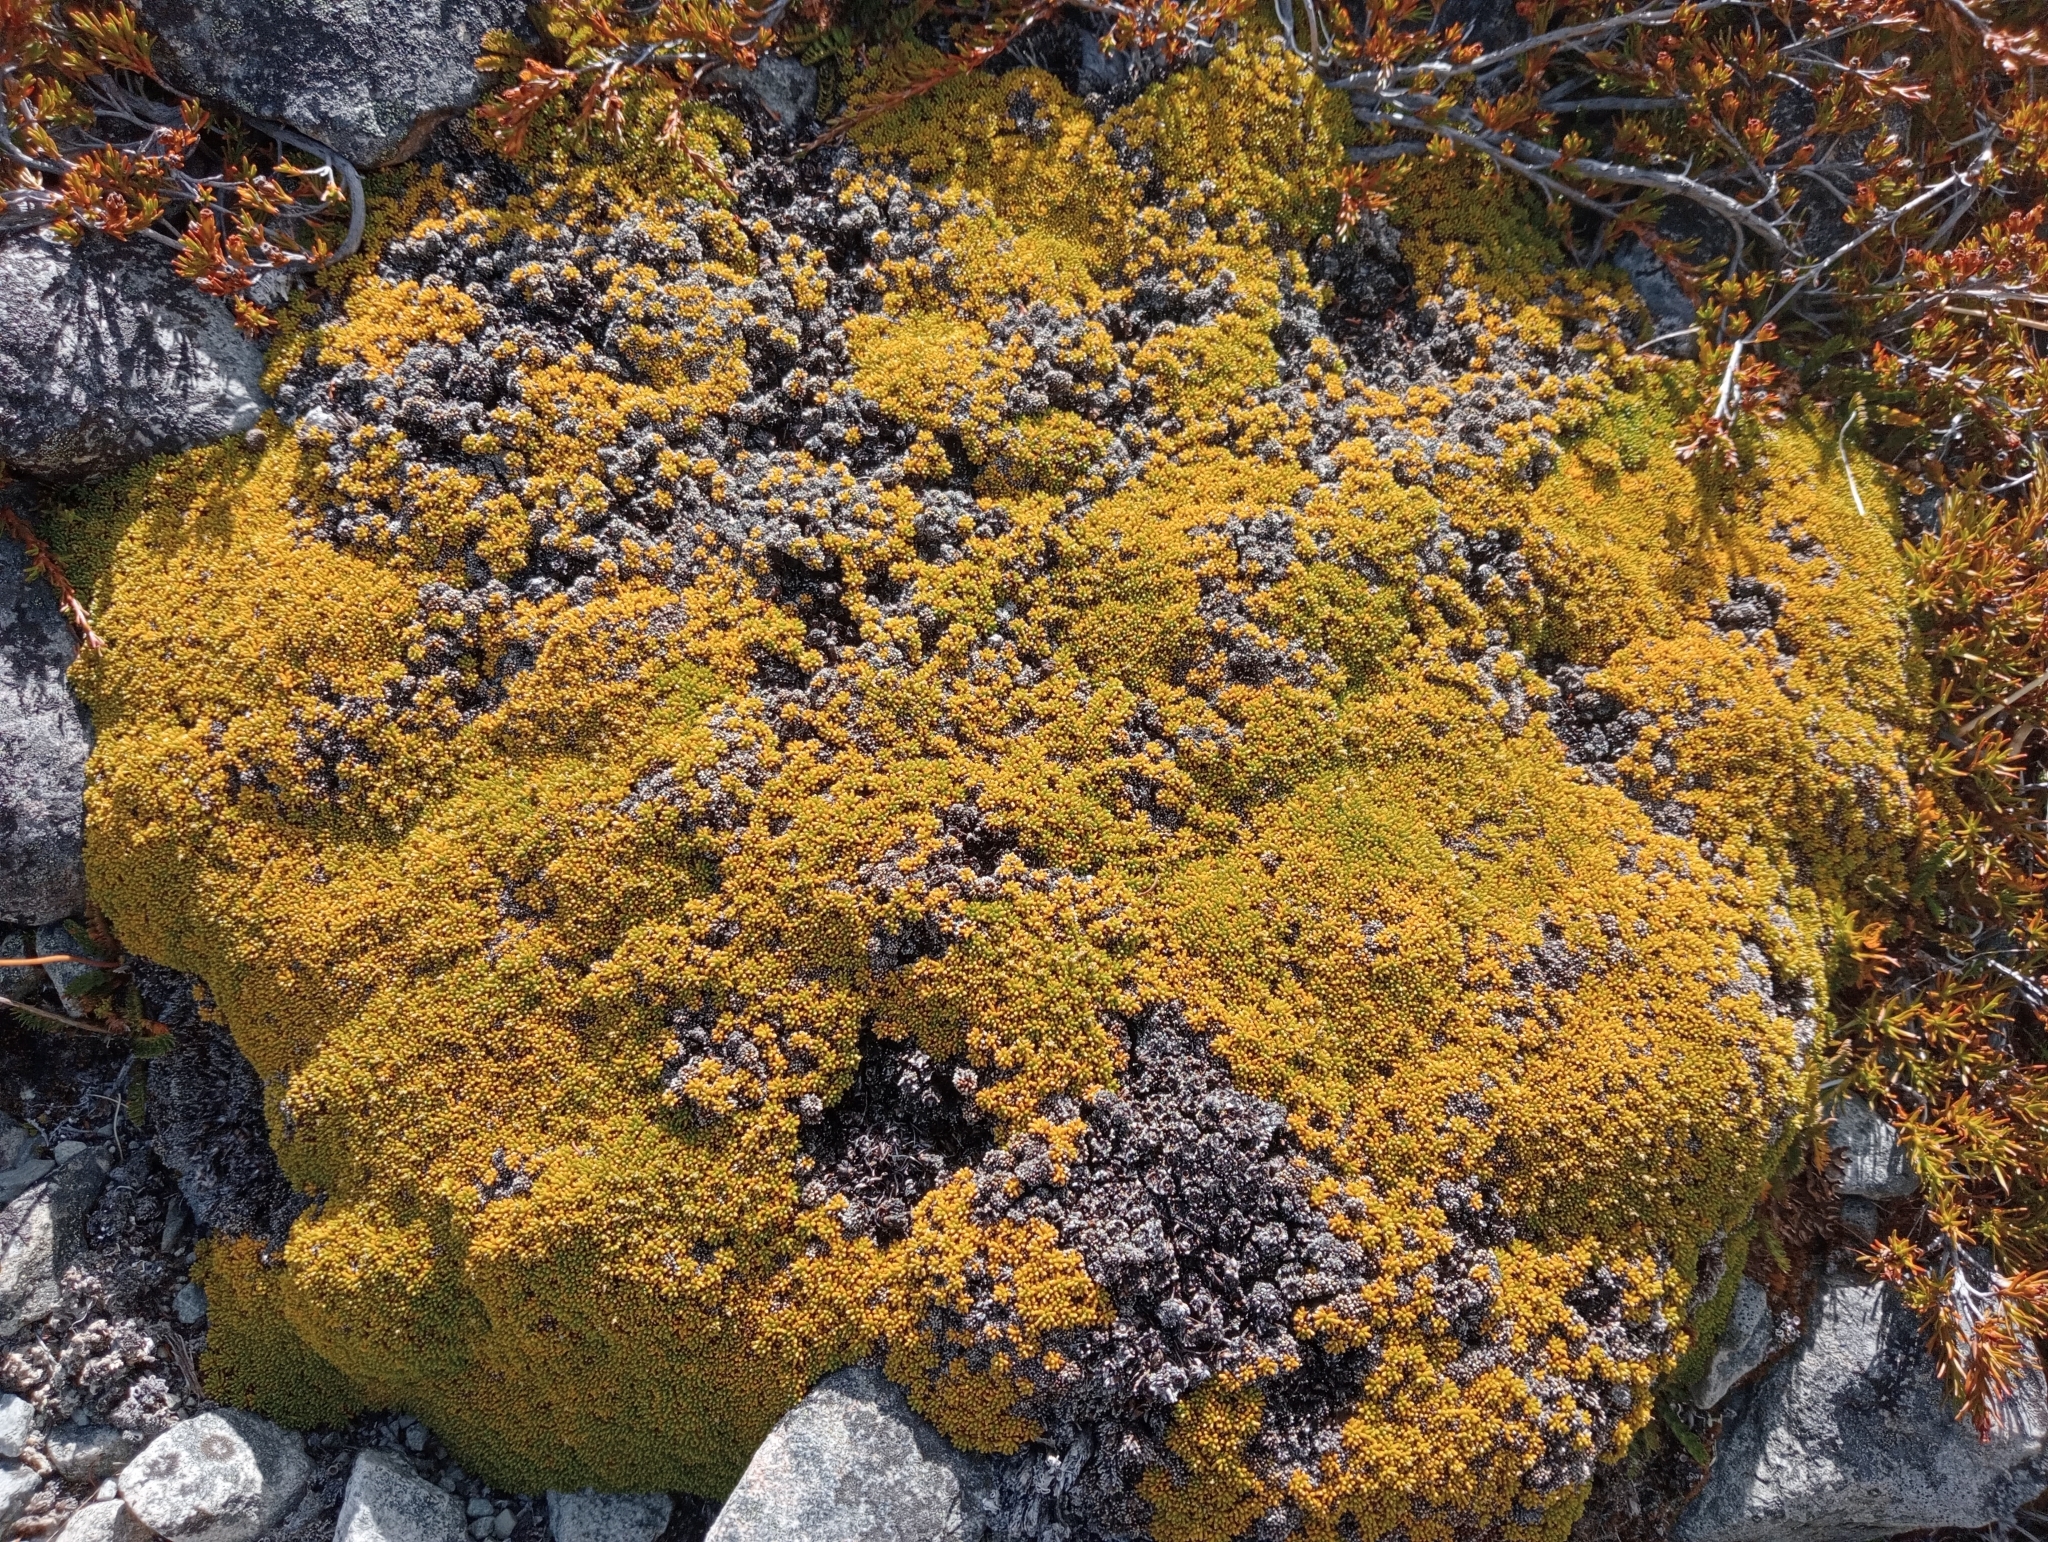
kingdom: Plantae
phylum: Tracheophyta
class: Magnoliopsida
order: Asterales
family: Stylidiaceae
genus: Phyllachne
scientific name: Phyllachne colensoi
